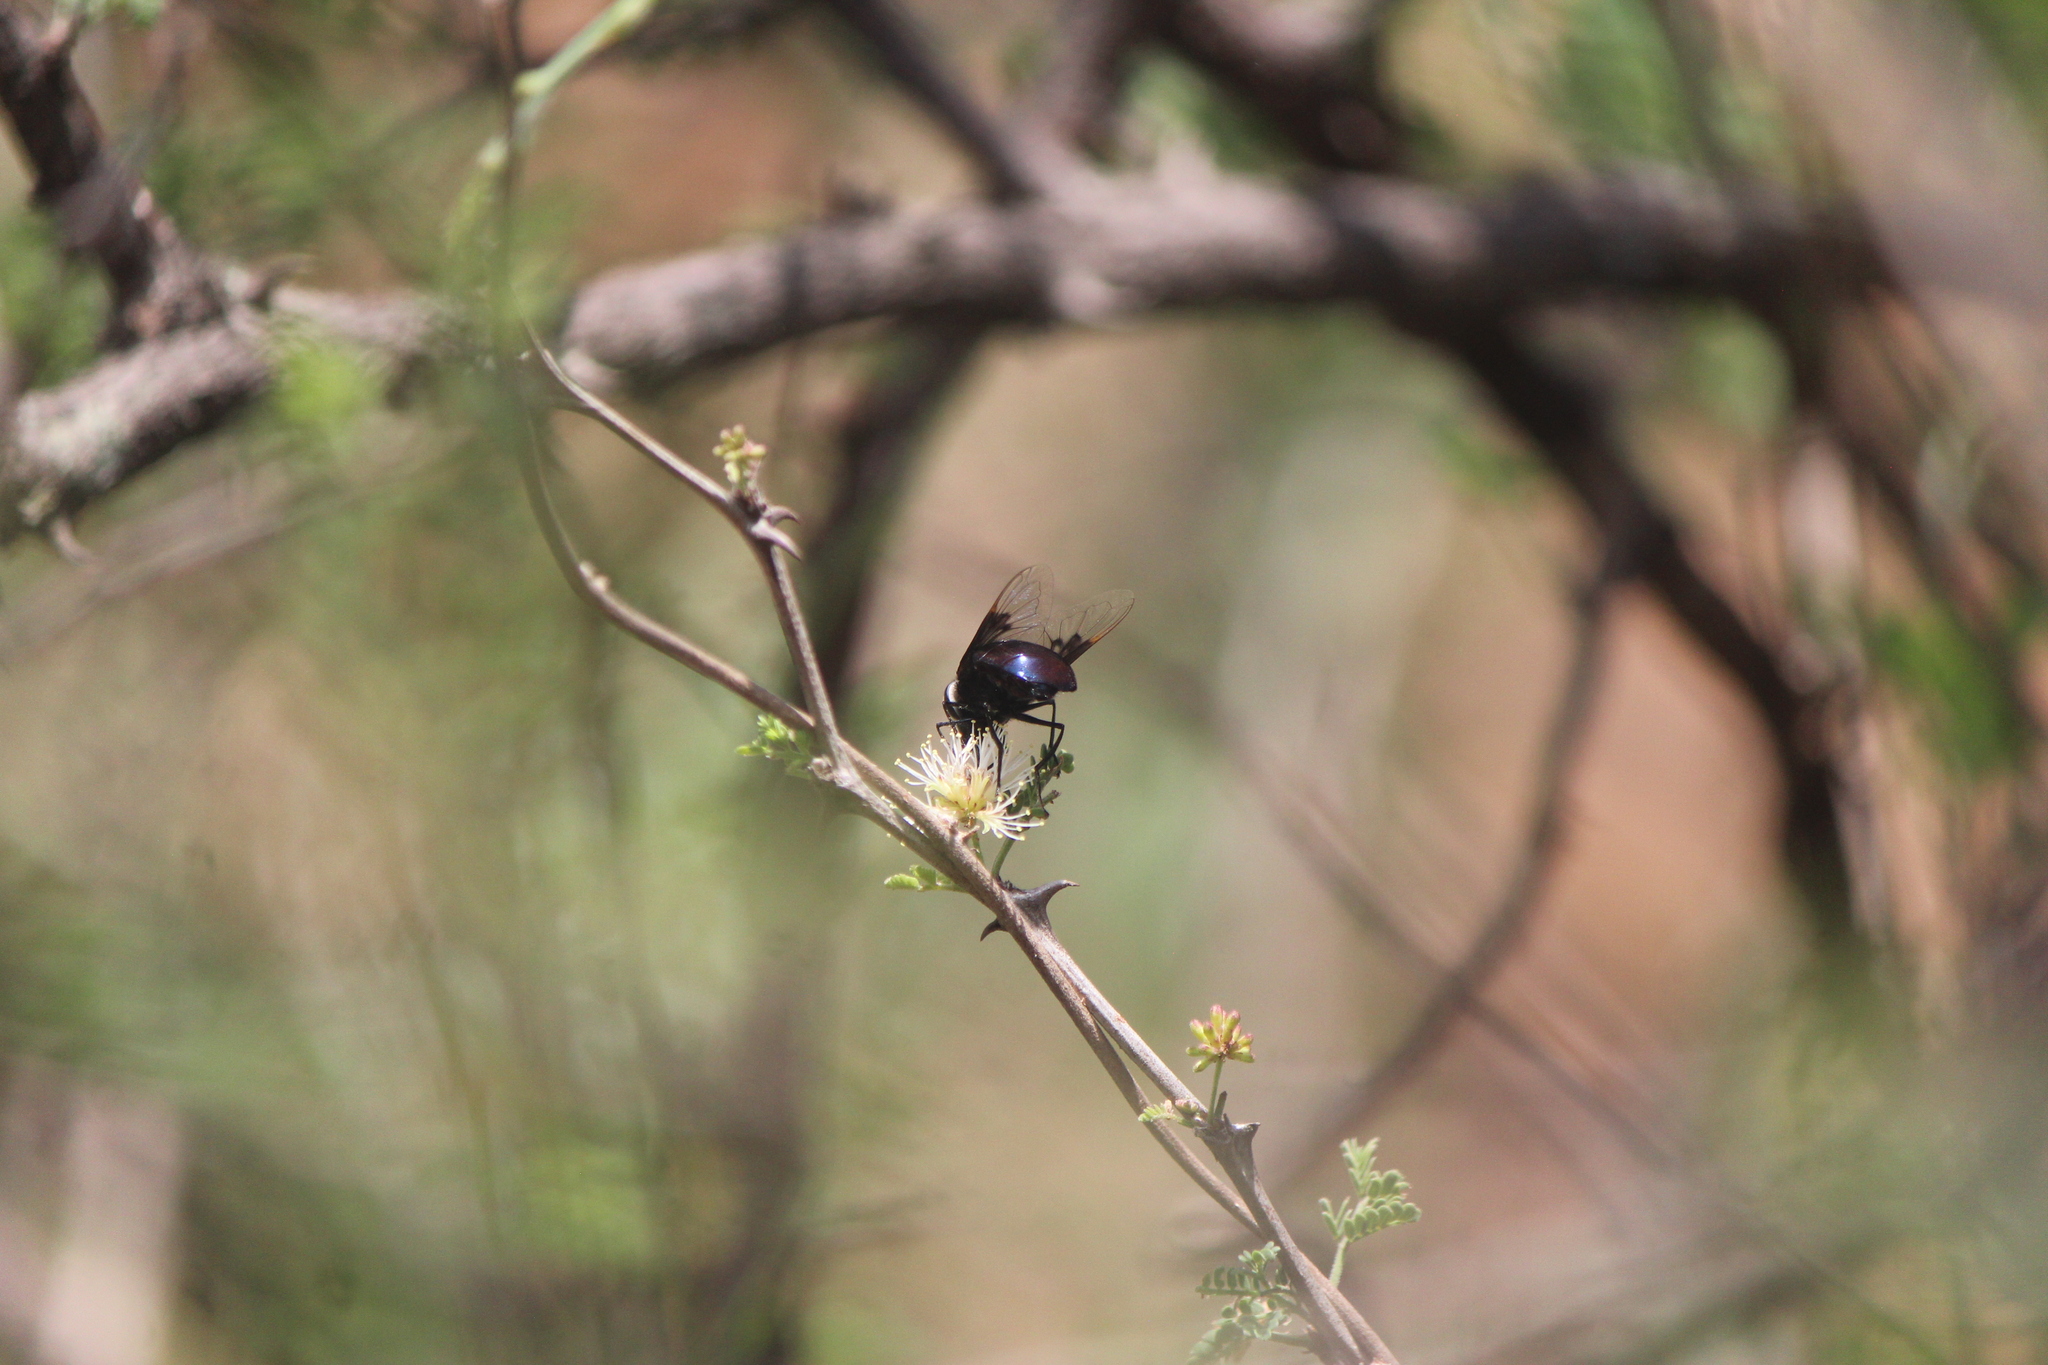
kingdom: Animalia
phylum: Arthropoda
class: Insecta
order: Diptera
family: Syrphidae
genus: Copestylum
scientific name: Copestylum violaceum
